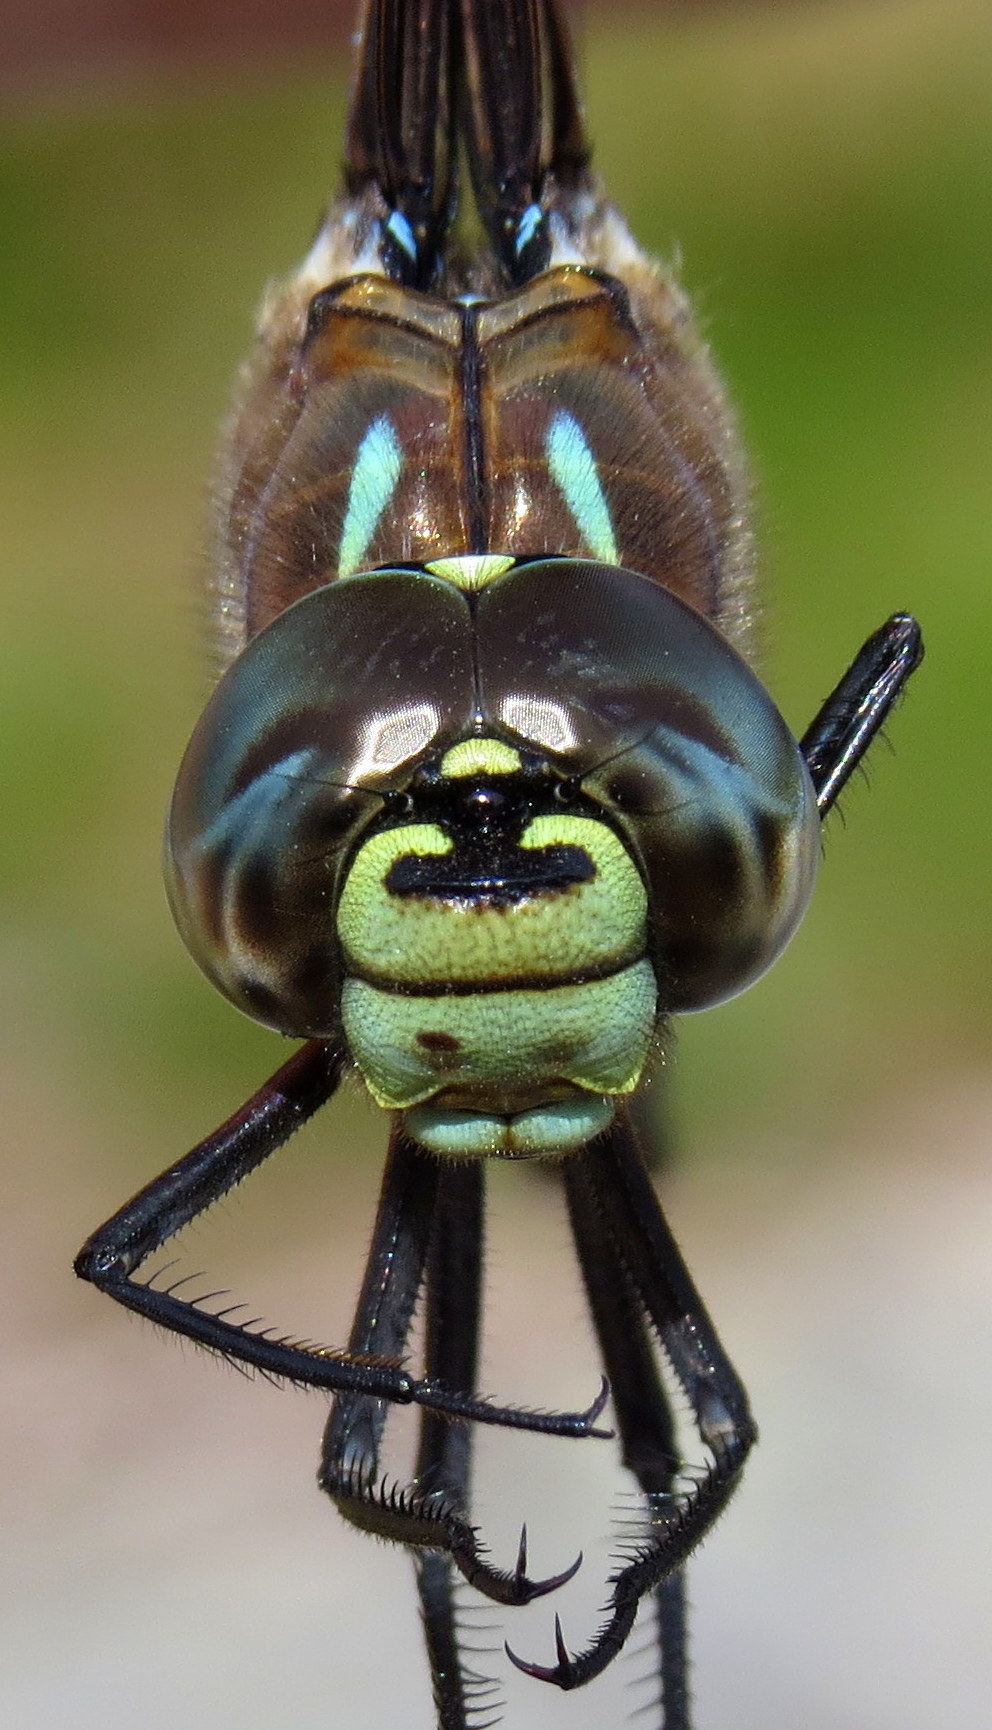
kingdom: Animalia
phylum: Arthropoda
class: Insecta
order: Odonata
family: Aeshnidae
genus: Aeshna
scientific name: Aeshna interrupta
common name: Variable darner
